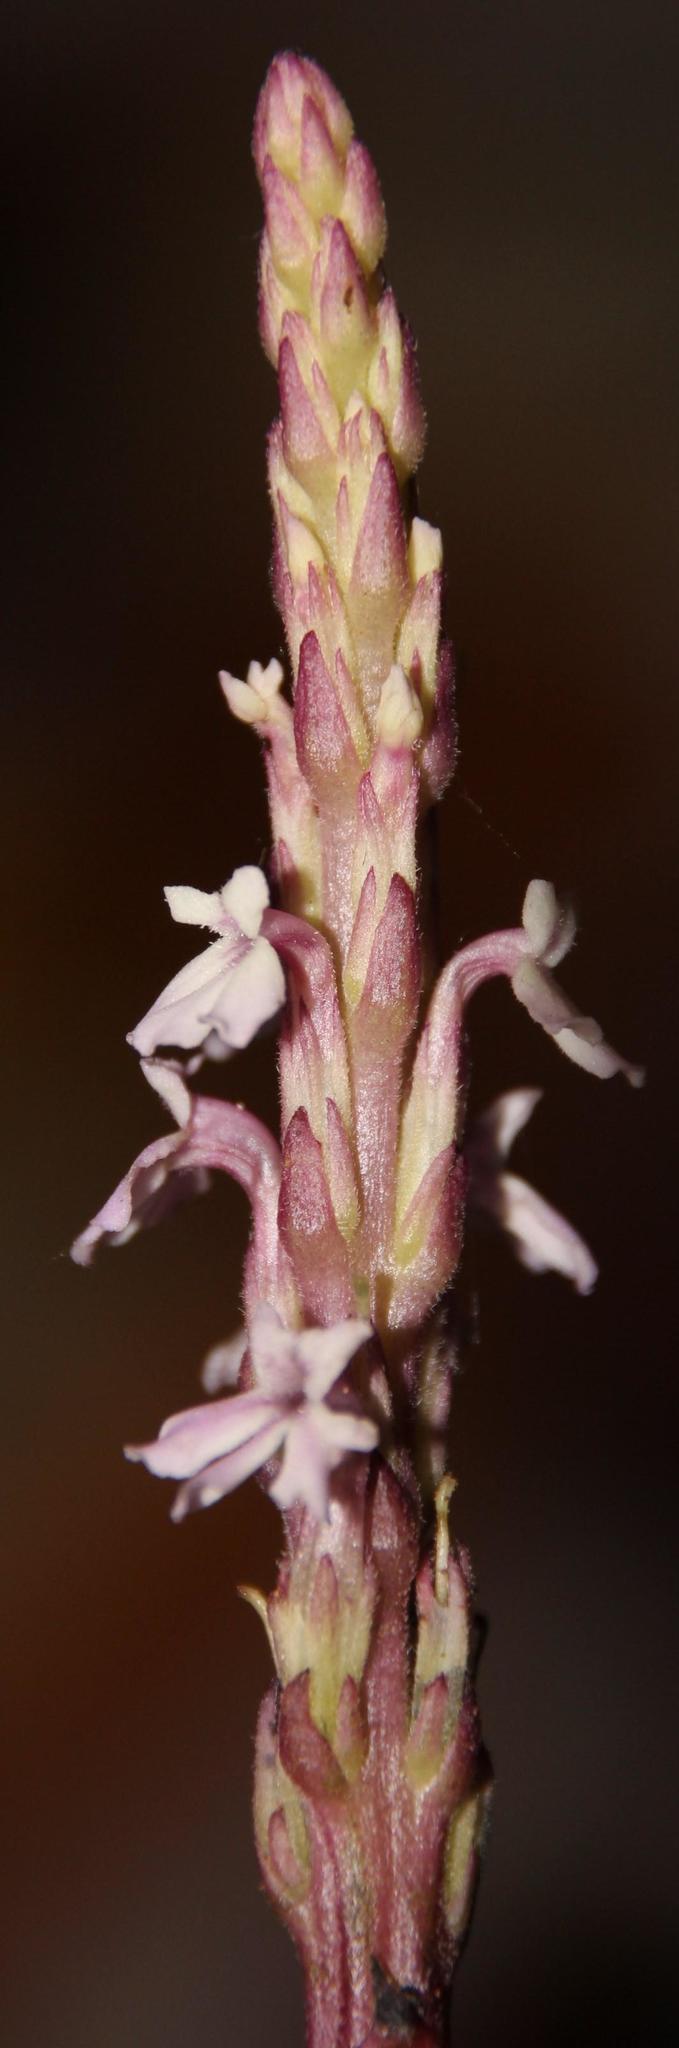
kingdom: Plantae
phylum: Tracheophyta
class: Magnoliopsida
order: Lamiales
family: Orobanchaceae
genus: Striga
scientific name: Striga gesnerioides
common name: Cowpea witchweed
